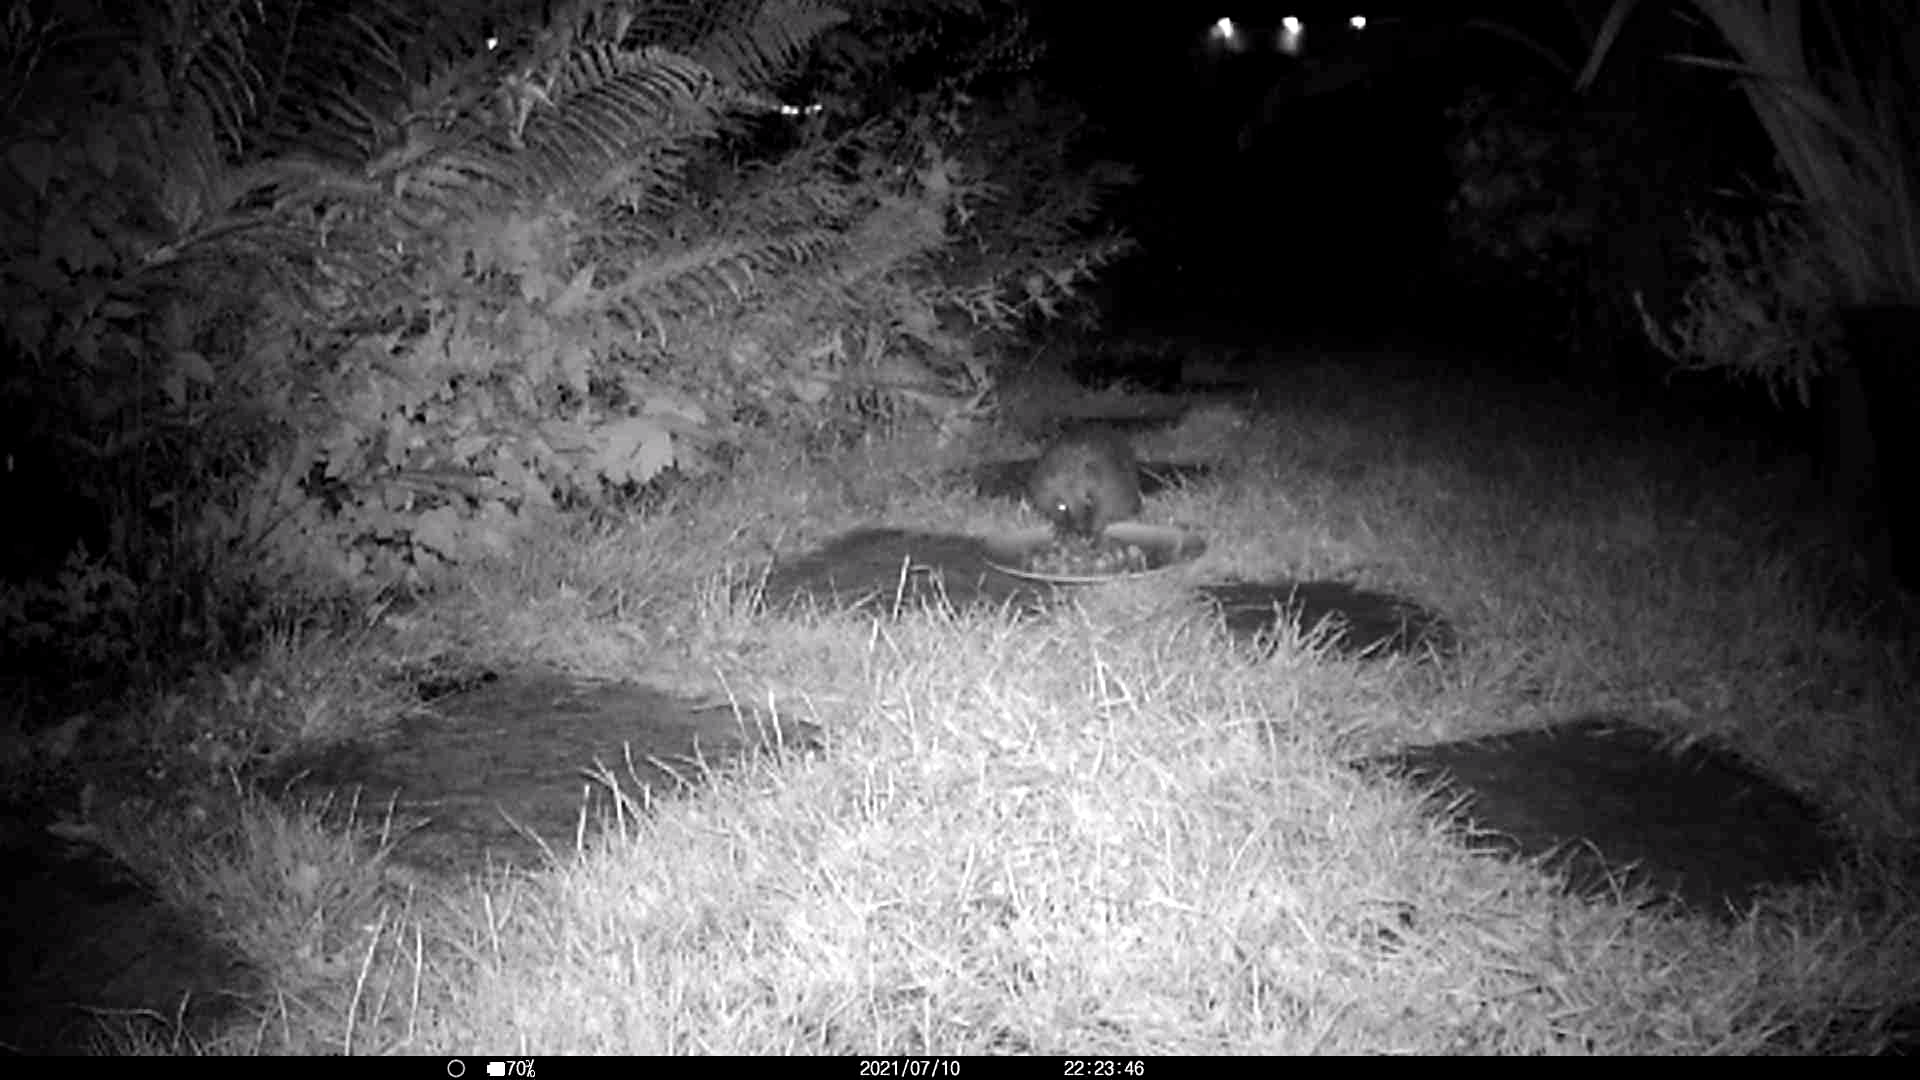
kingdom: Animalia
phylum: Chordata
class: Mammalia
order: Erinaceomorpha
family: Erinaceidae
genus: Erinaceus
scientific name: Erinaceus europaeus
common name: West european hedgehog
